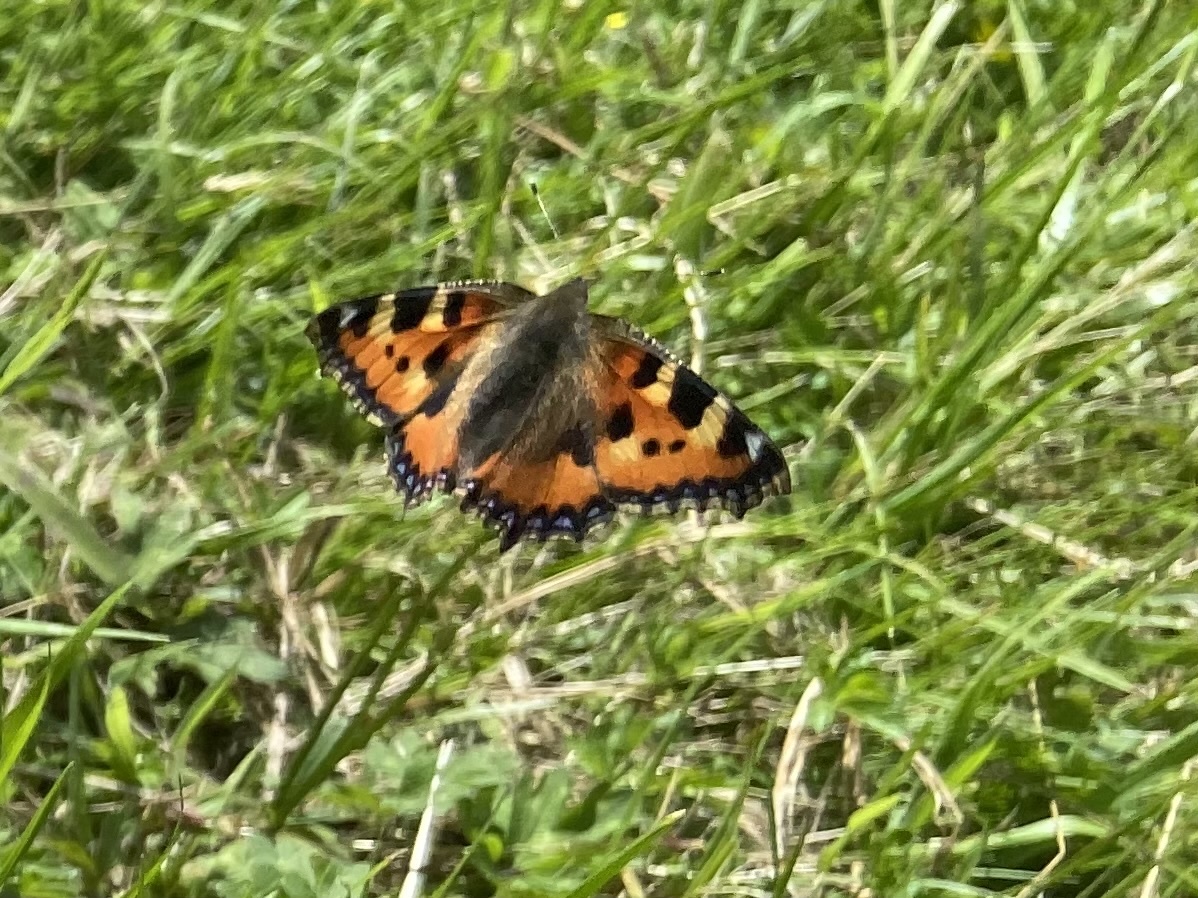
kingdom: Animalia
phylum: Arthropoda
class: Insecta
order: Lepidoptera
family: Nymphalidae
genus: Aglais
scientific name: Aglais urticae
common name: Small tortoiseshell
